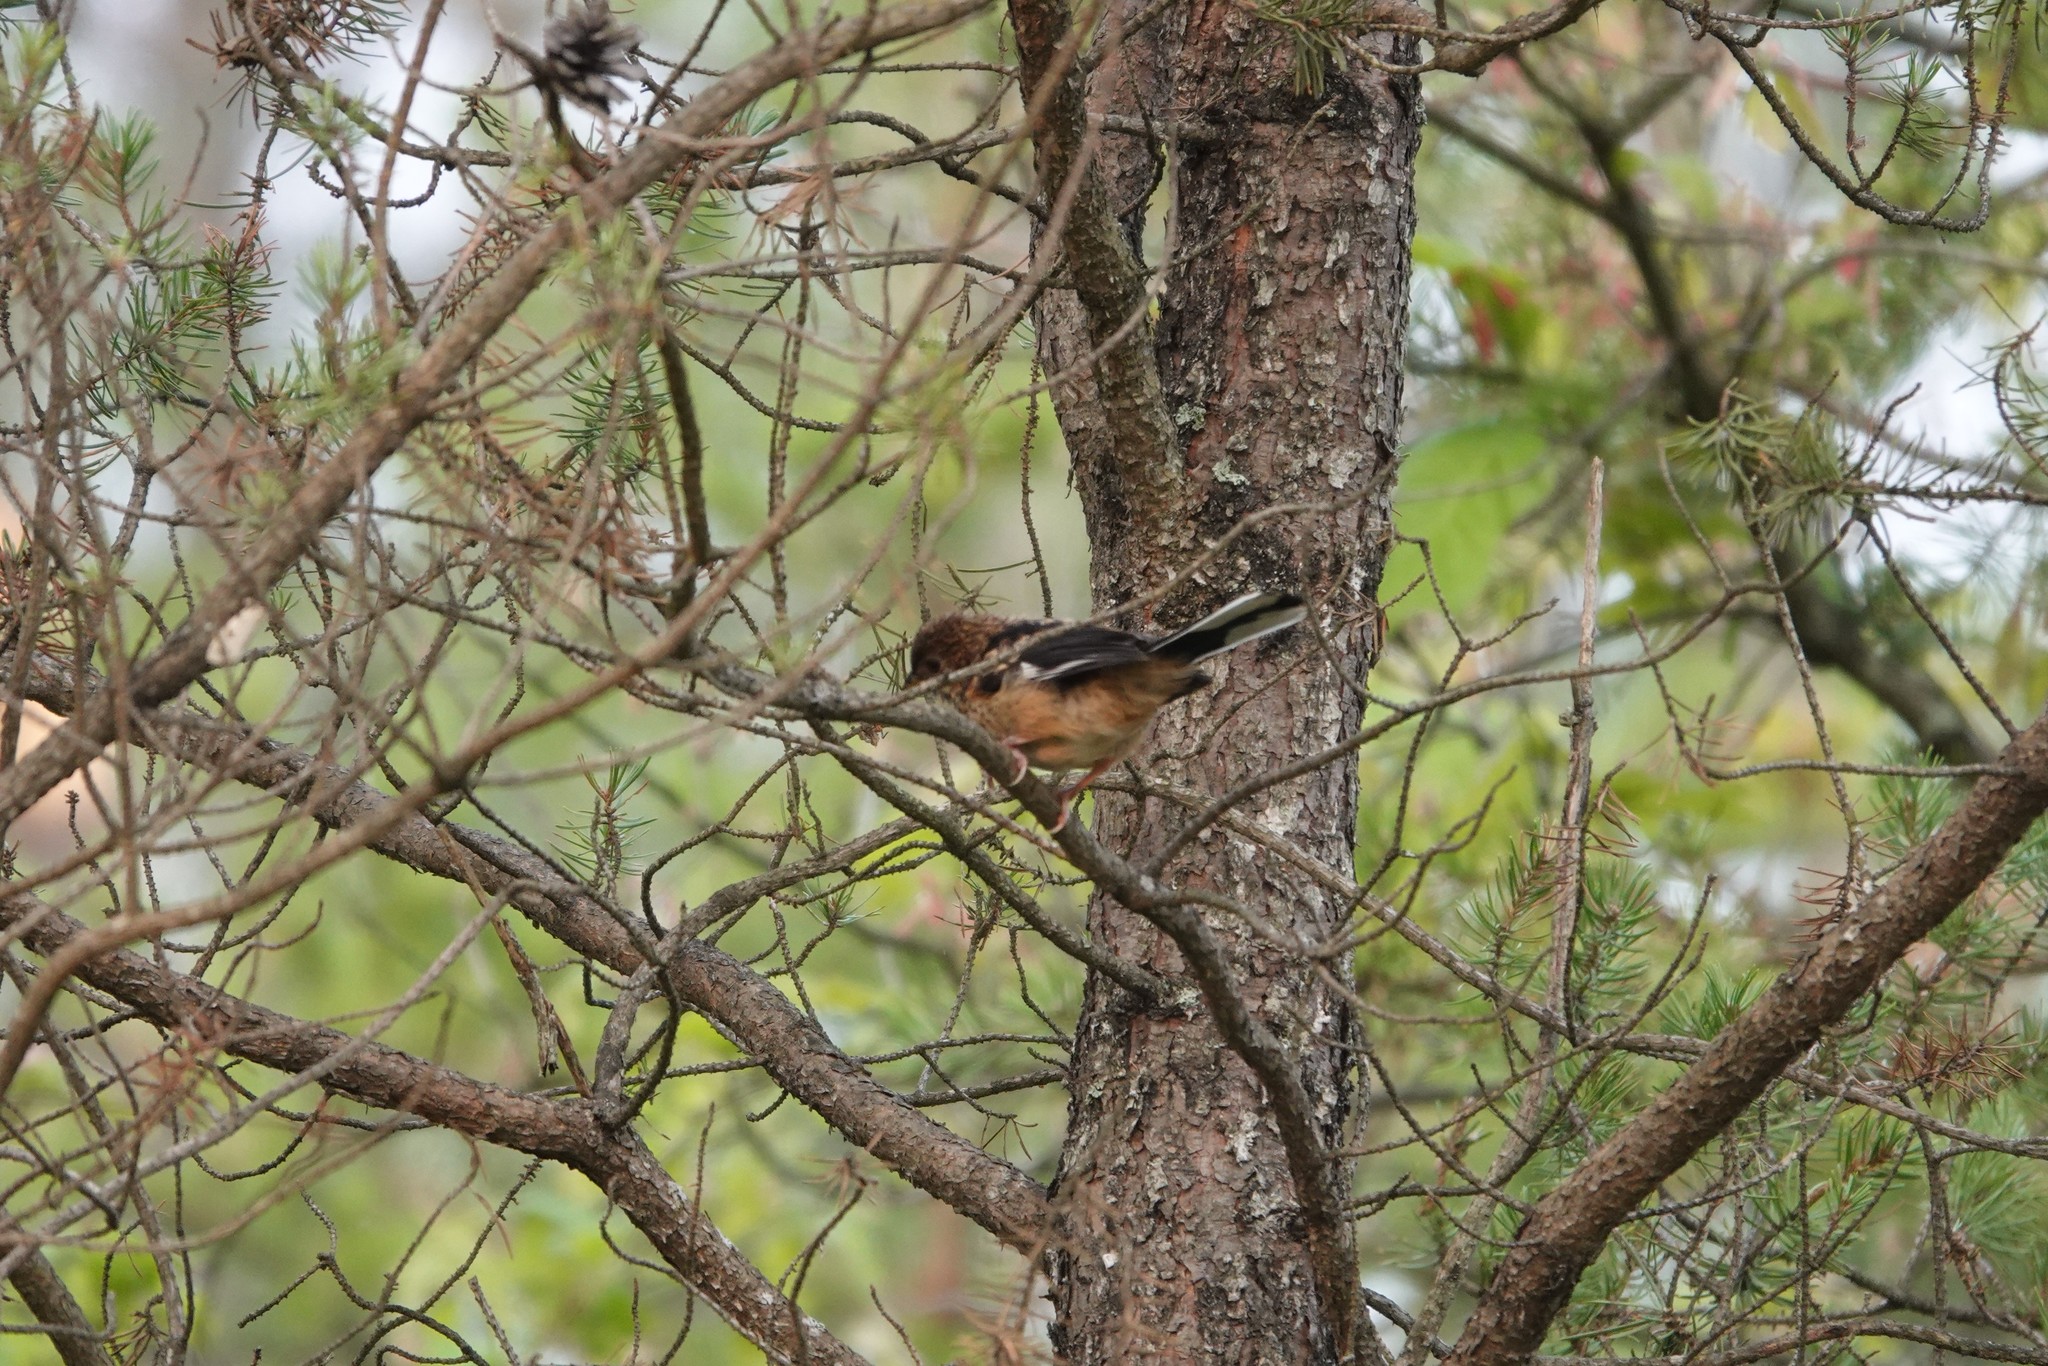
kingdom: Animalia
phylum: Chordata
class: Aves
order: Passeriformes
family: Passerellidae
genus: Pipilo
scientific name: Pipilo erythrophthalmus
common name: Eastern towhee
